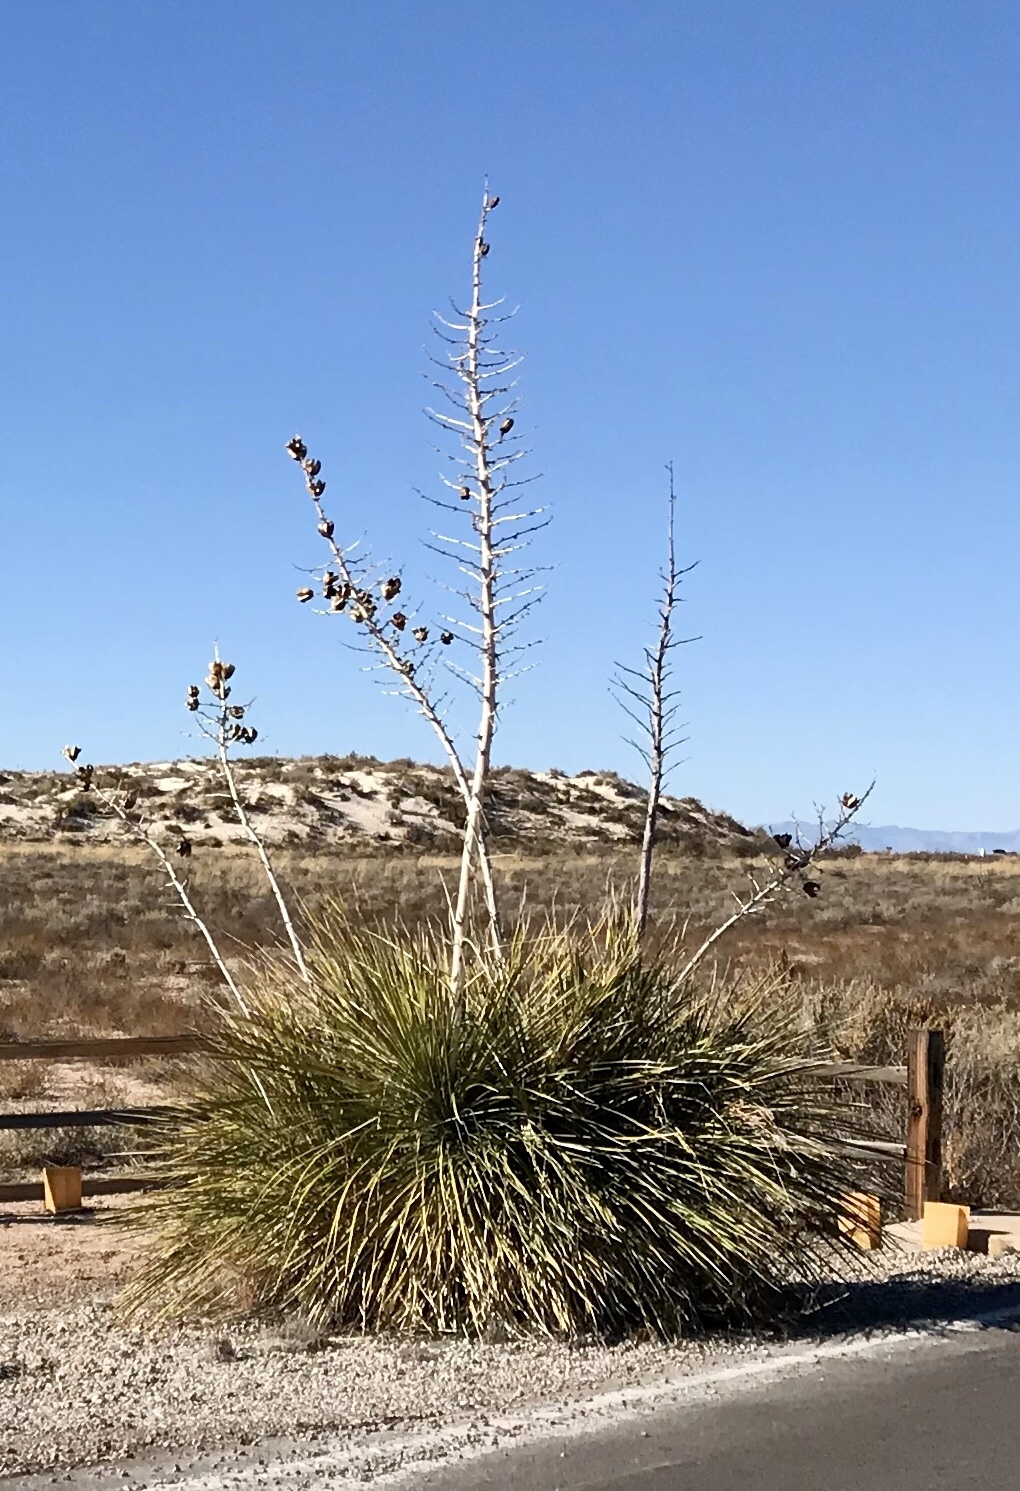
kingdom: Plantae
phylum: Tracheophyta
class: Liliopsida
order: Asparagales
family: Asparagaceae
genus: Yucca
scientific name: Yucca elata
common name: Palmella
